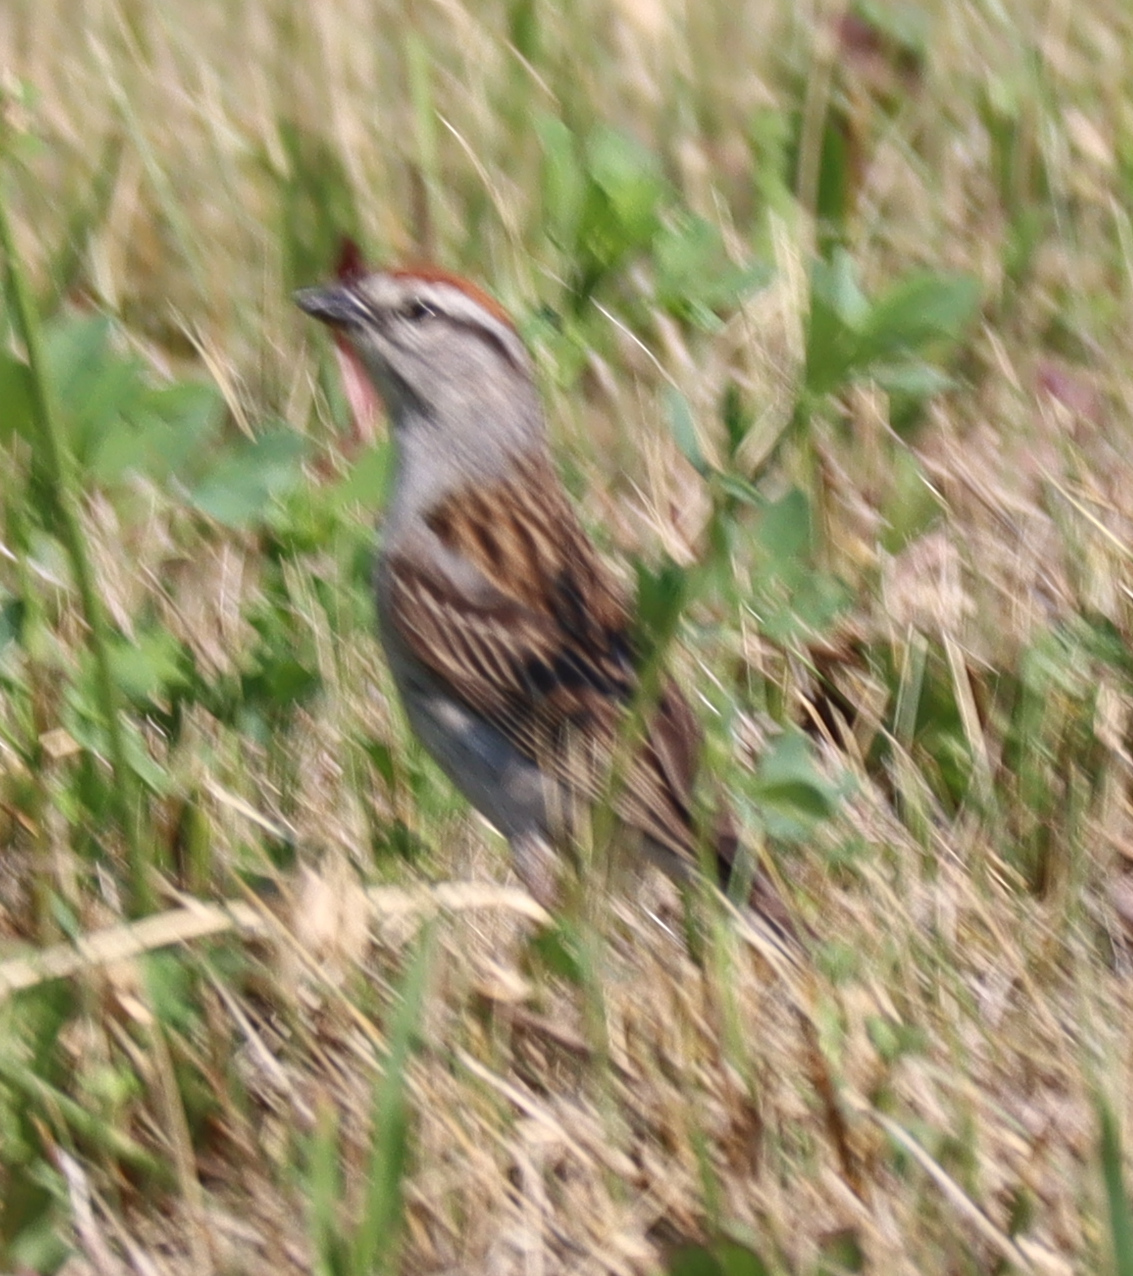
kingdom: Animalia
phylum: Chordata
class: Aves
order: Passeriformes
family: Passerellidae
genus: Spizella
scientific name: Spizella passerina
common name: Chipping sparrow
